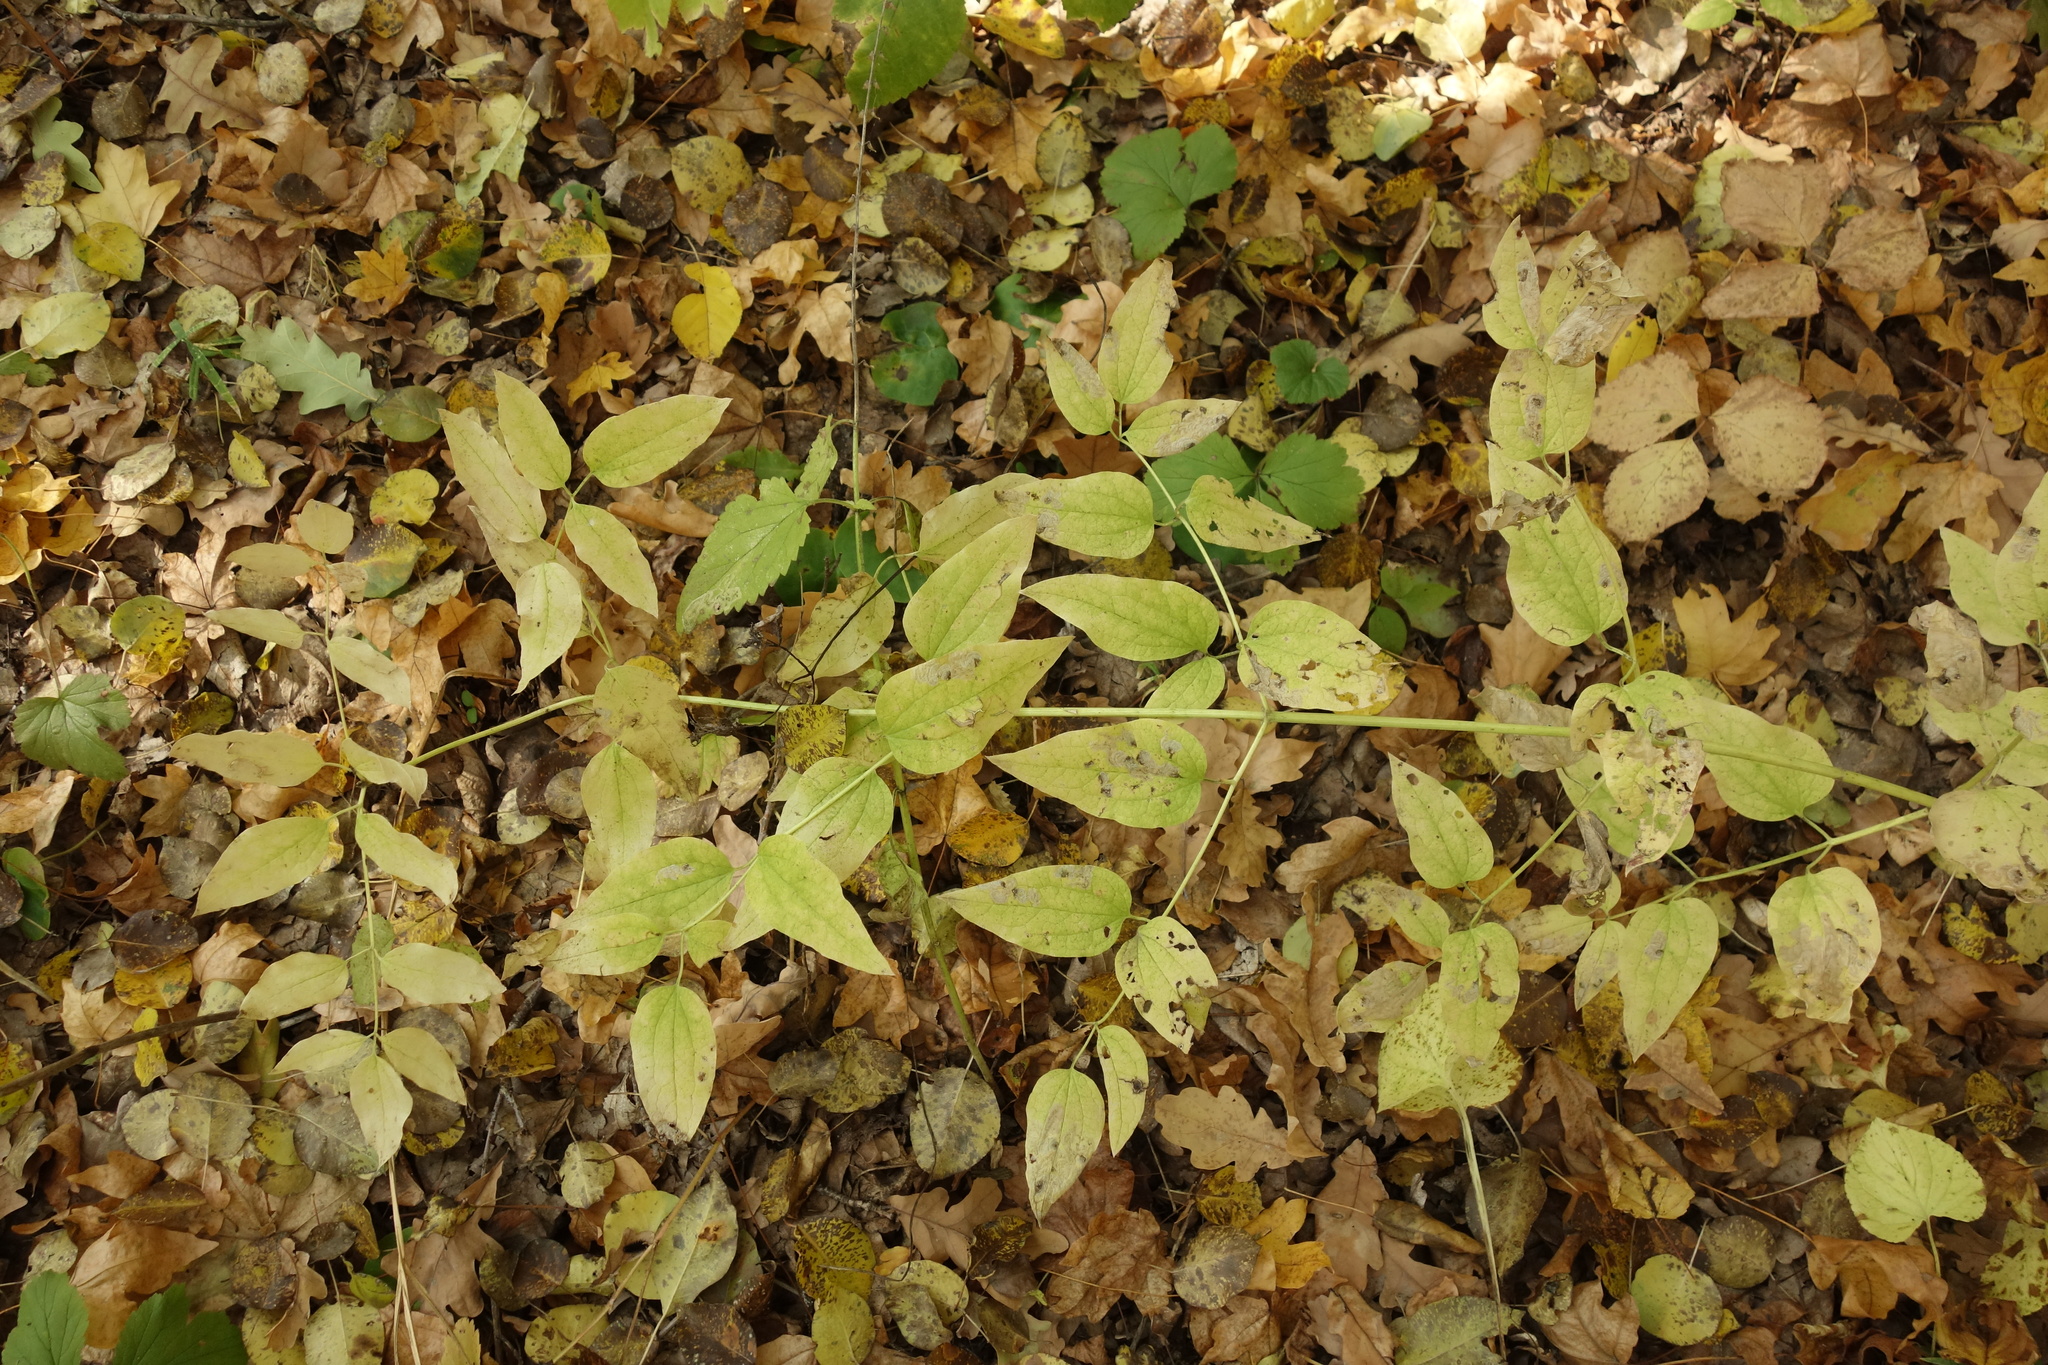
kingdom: Plantae
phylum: Tracheophyta
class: Magnoliopsida
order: Ranunculales
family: Ranunculaceae
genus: Clematis
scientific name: Clematis recta
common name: Ground clematis
